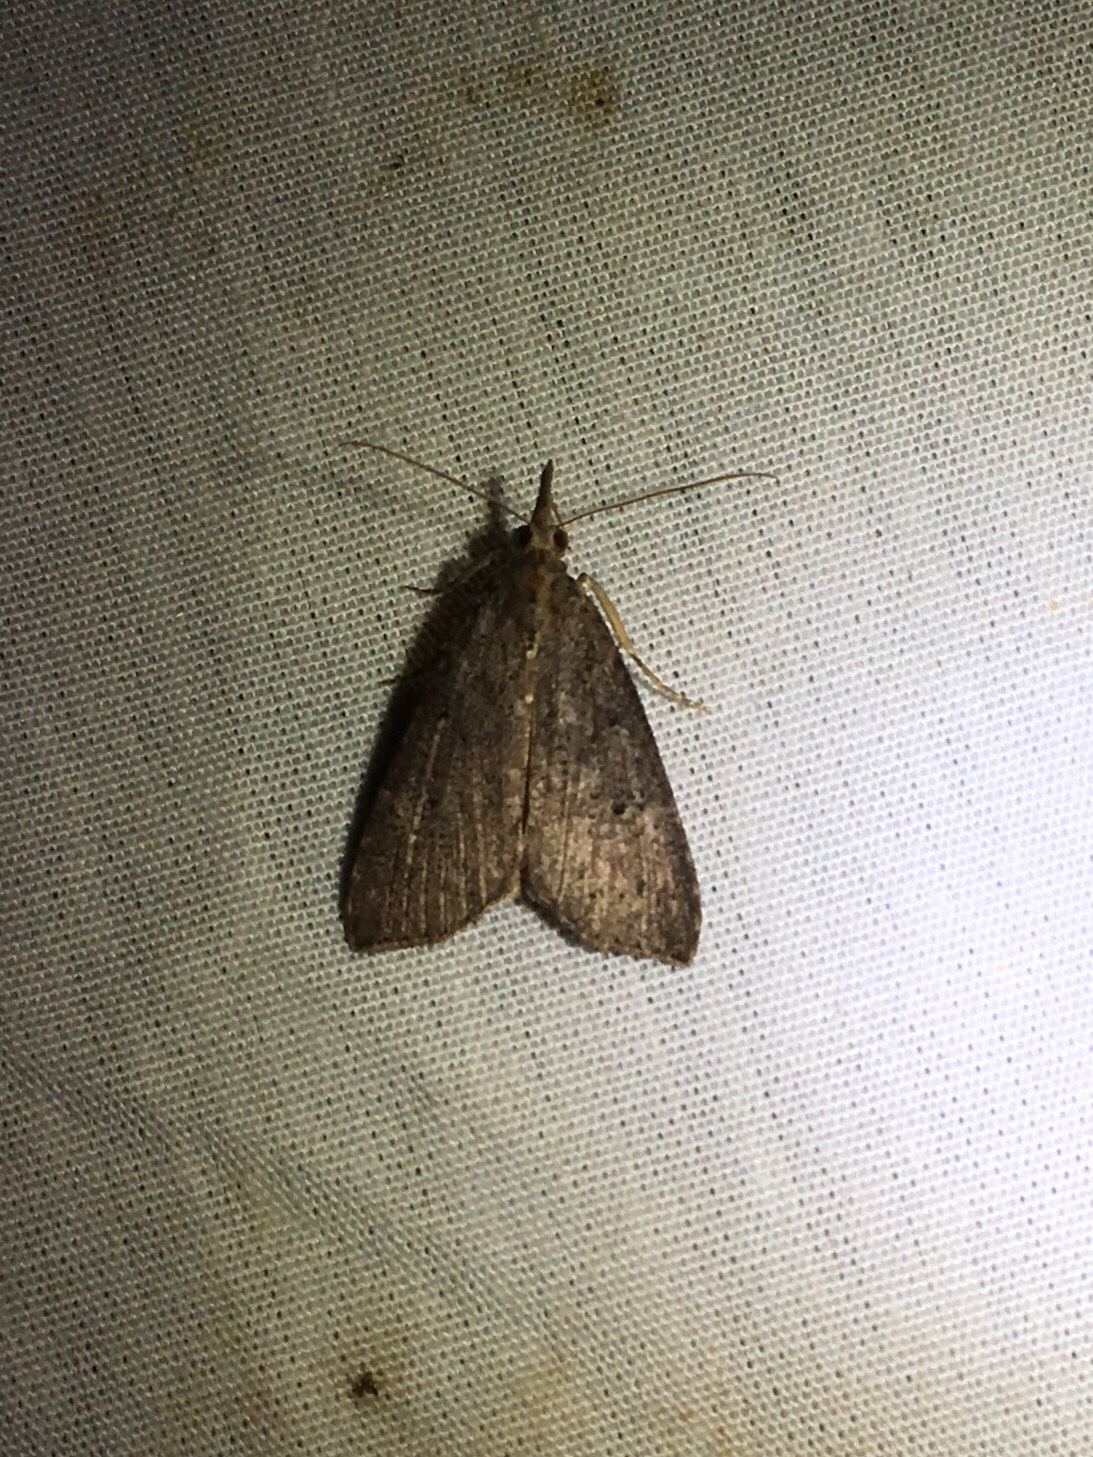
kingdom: Animalia
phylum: Arthropoda
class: Insecta
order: Lepidoptera
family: Erebidae
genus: Hypena
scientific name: Hypena humuli
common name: Hop vine snout
